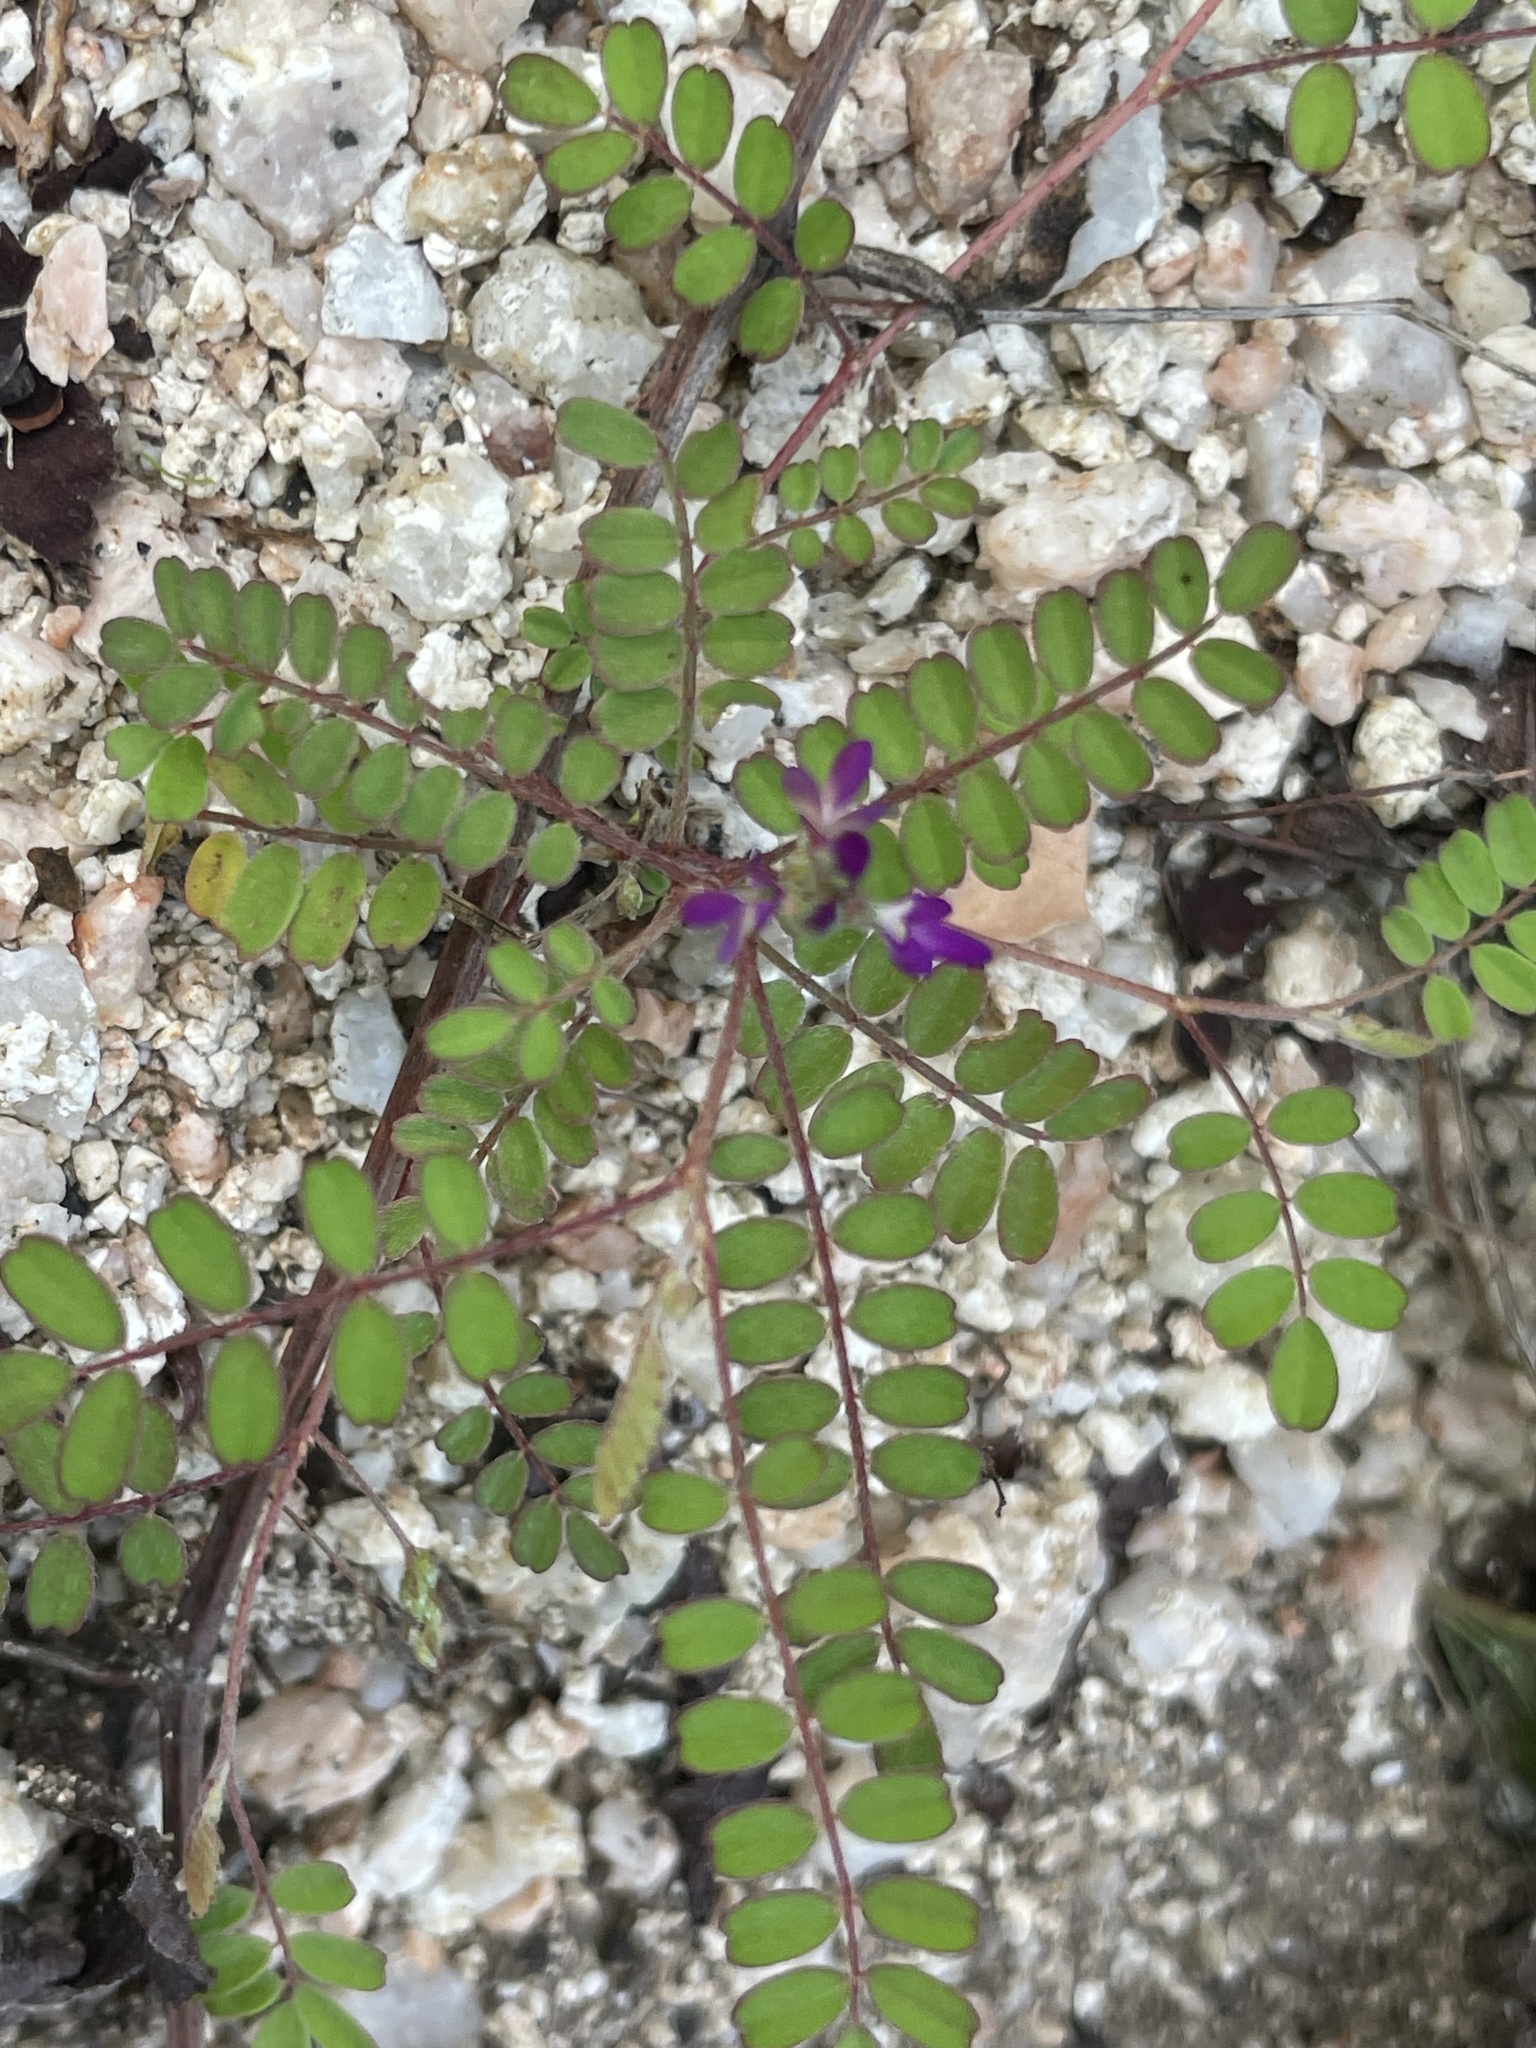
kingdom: Plantae
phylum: Tracheophyta
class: Magnoliopsida
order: Fabales
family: Fabaceae
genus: Marina
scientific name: Marina interstes
